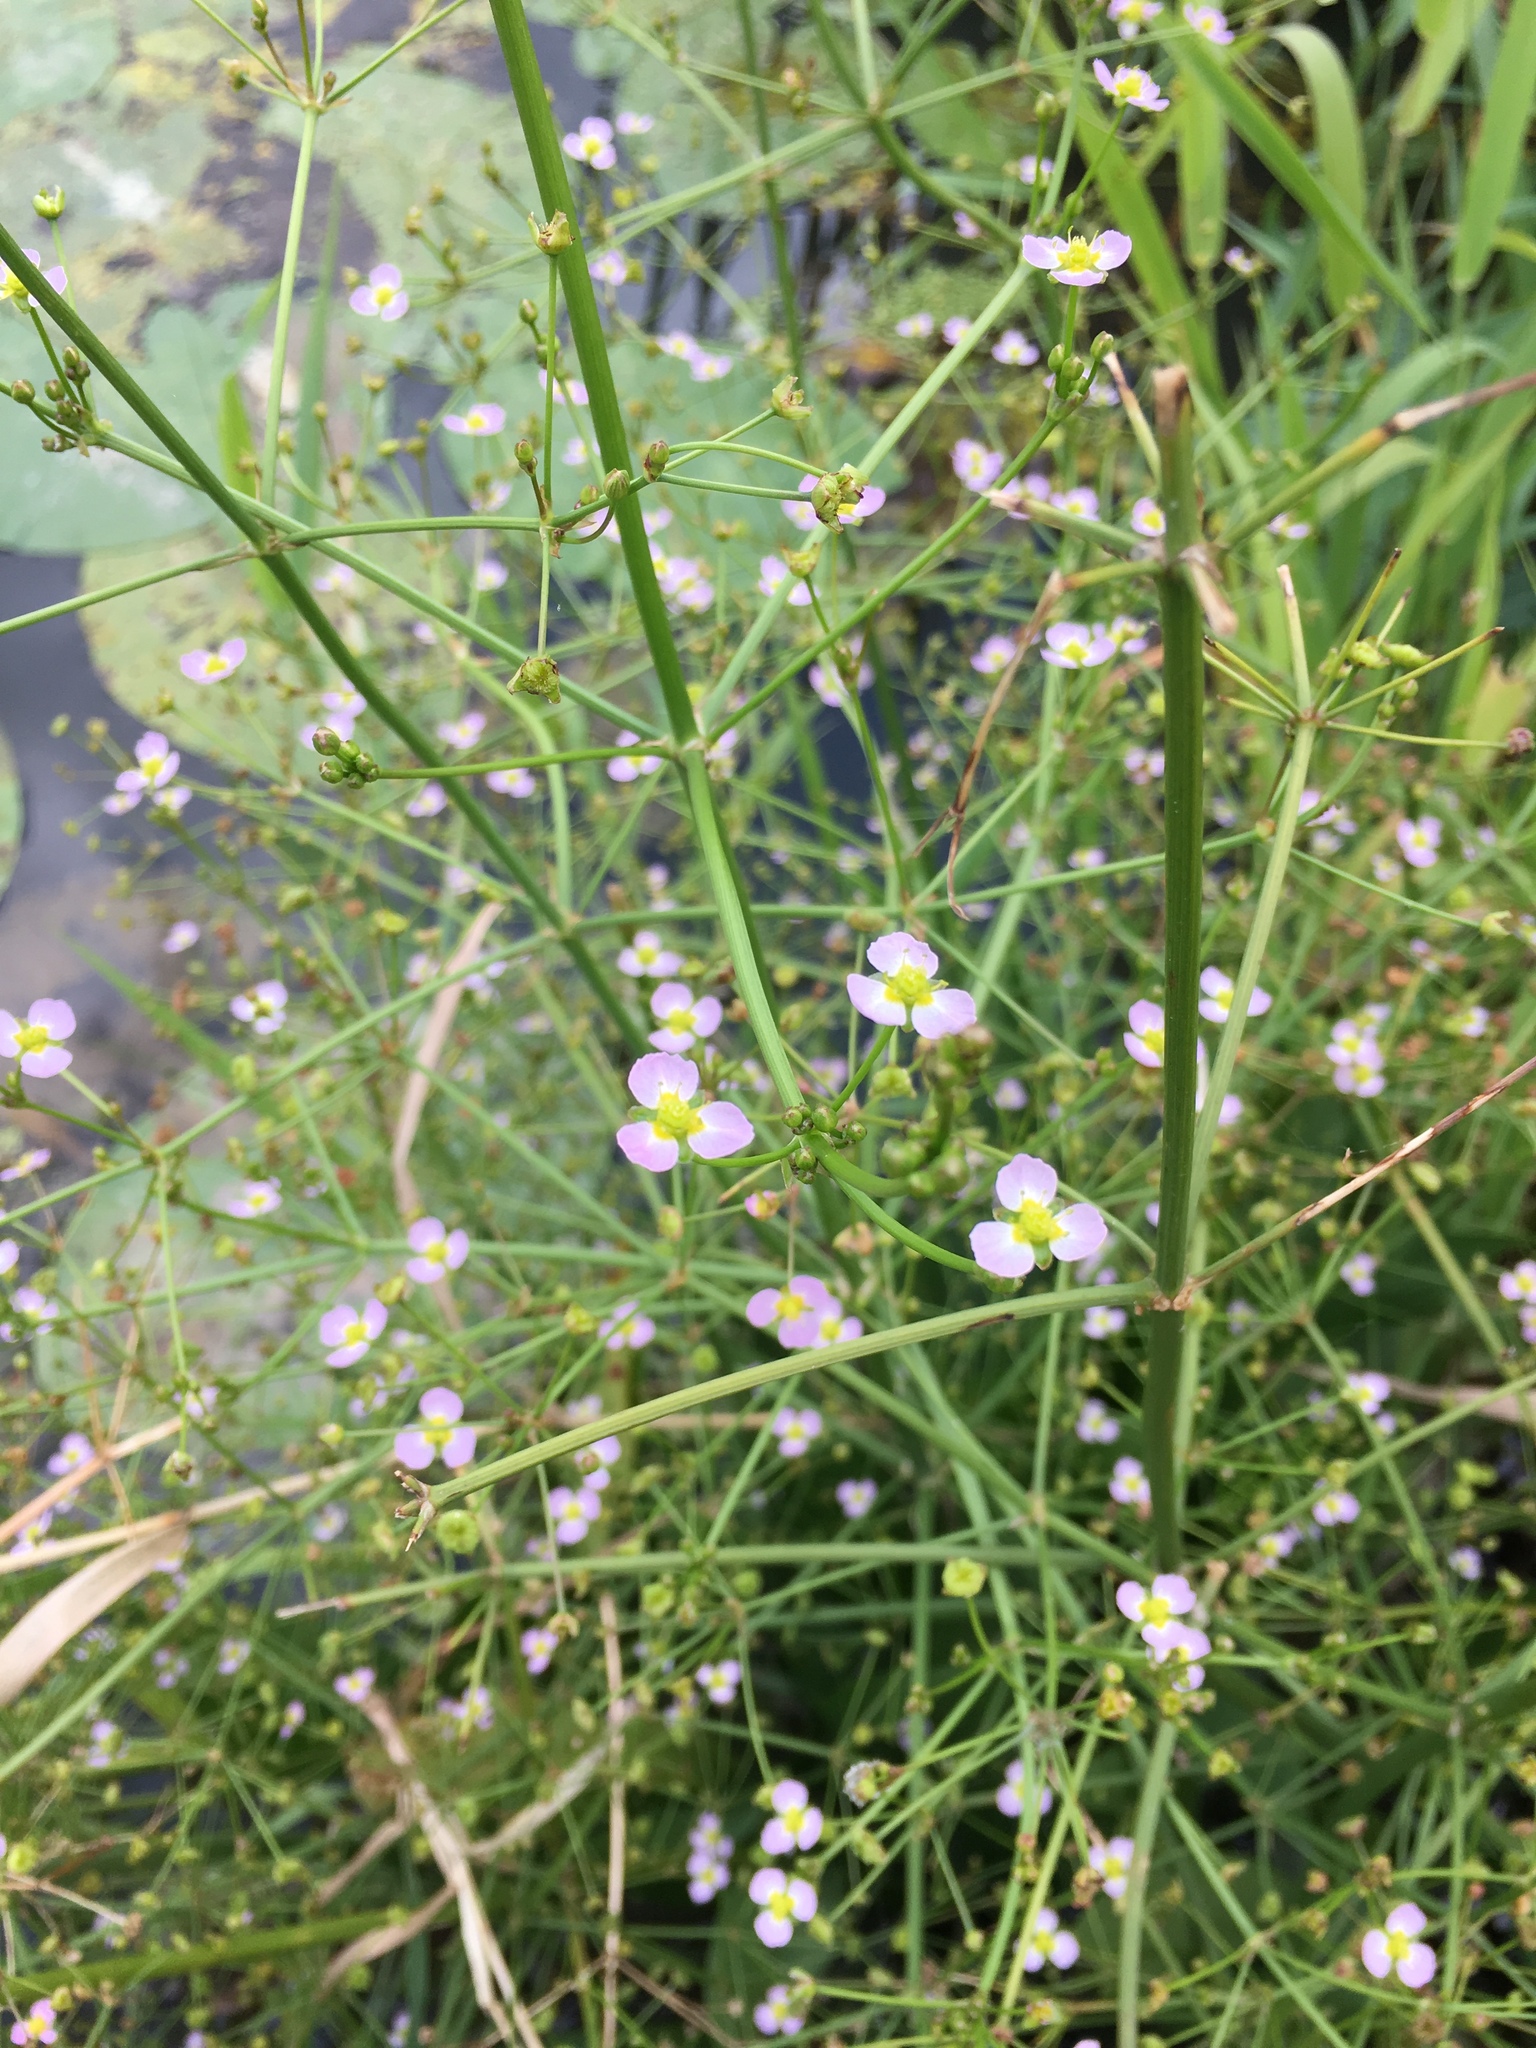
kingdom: Plantae
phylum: Tracheophyta
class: Liliopsida
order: Alismatales
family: Alismataceae
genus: Alisma
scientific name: Alisma plantago-aquatica
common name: Water-plantain
